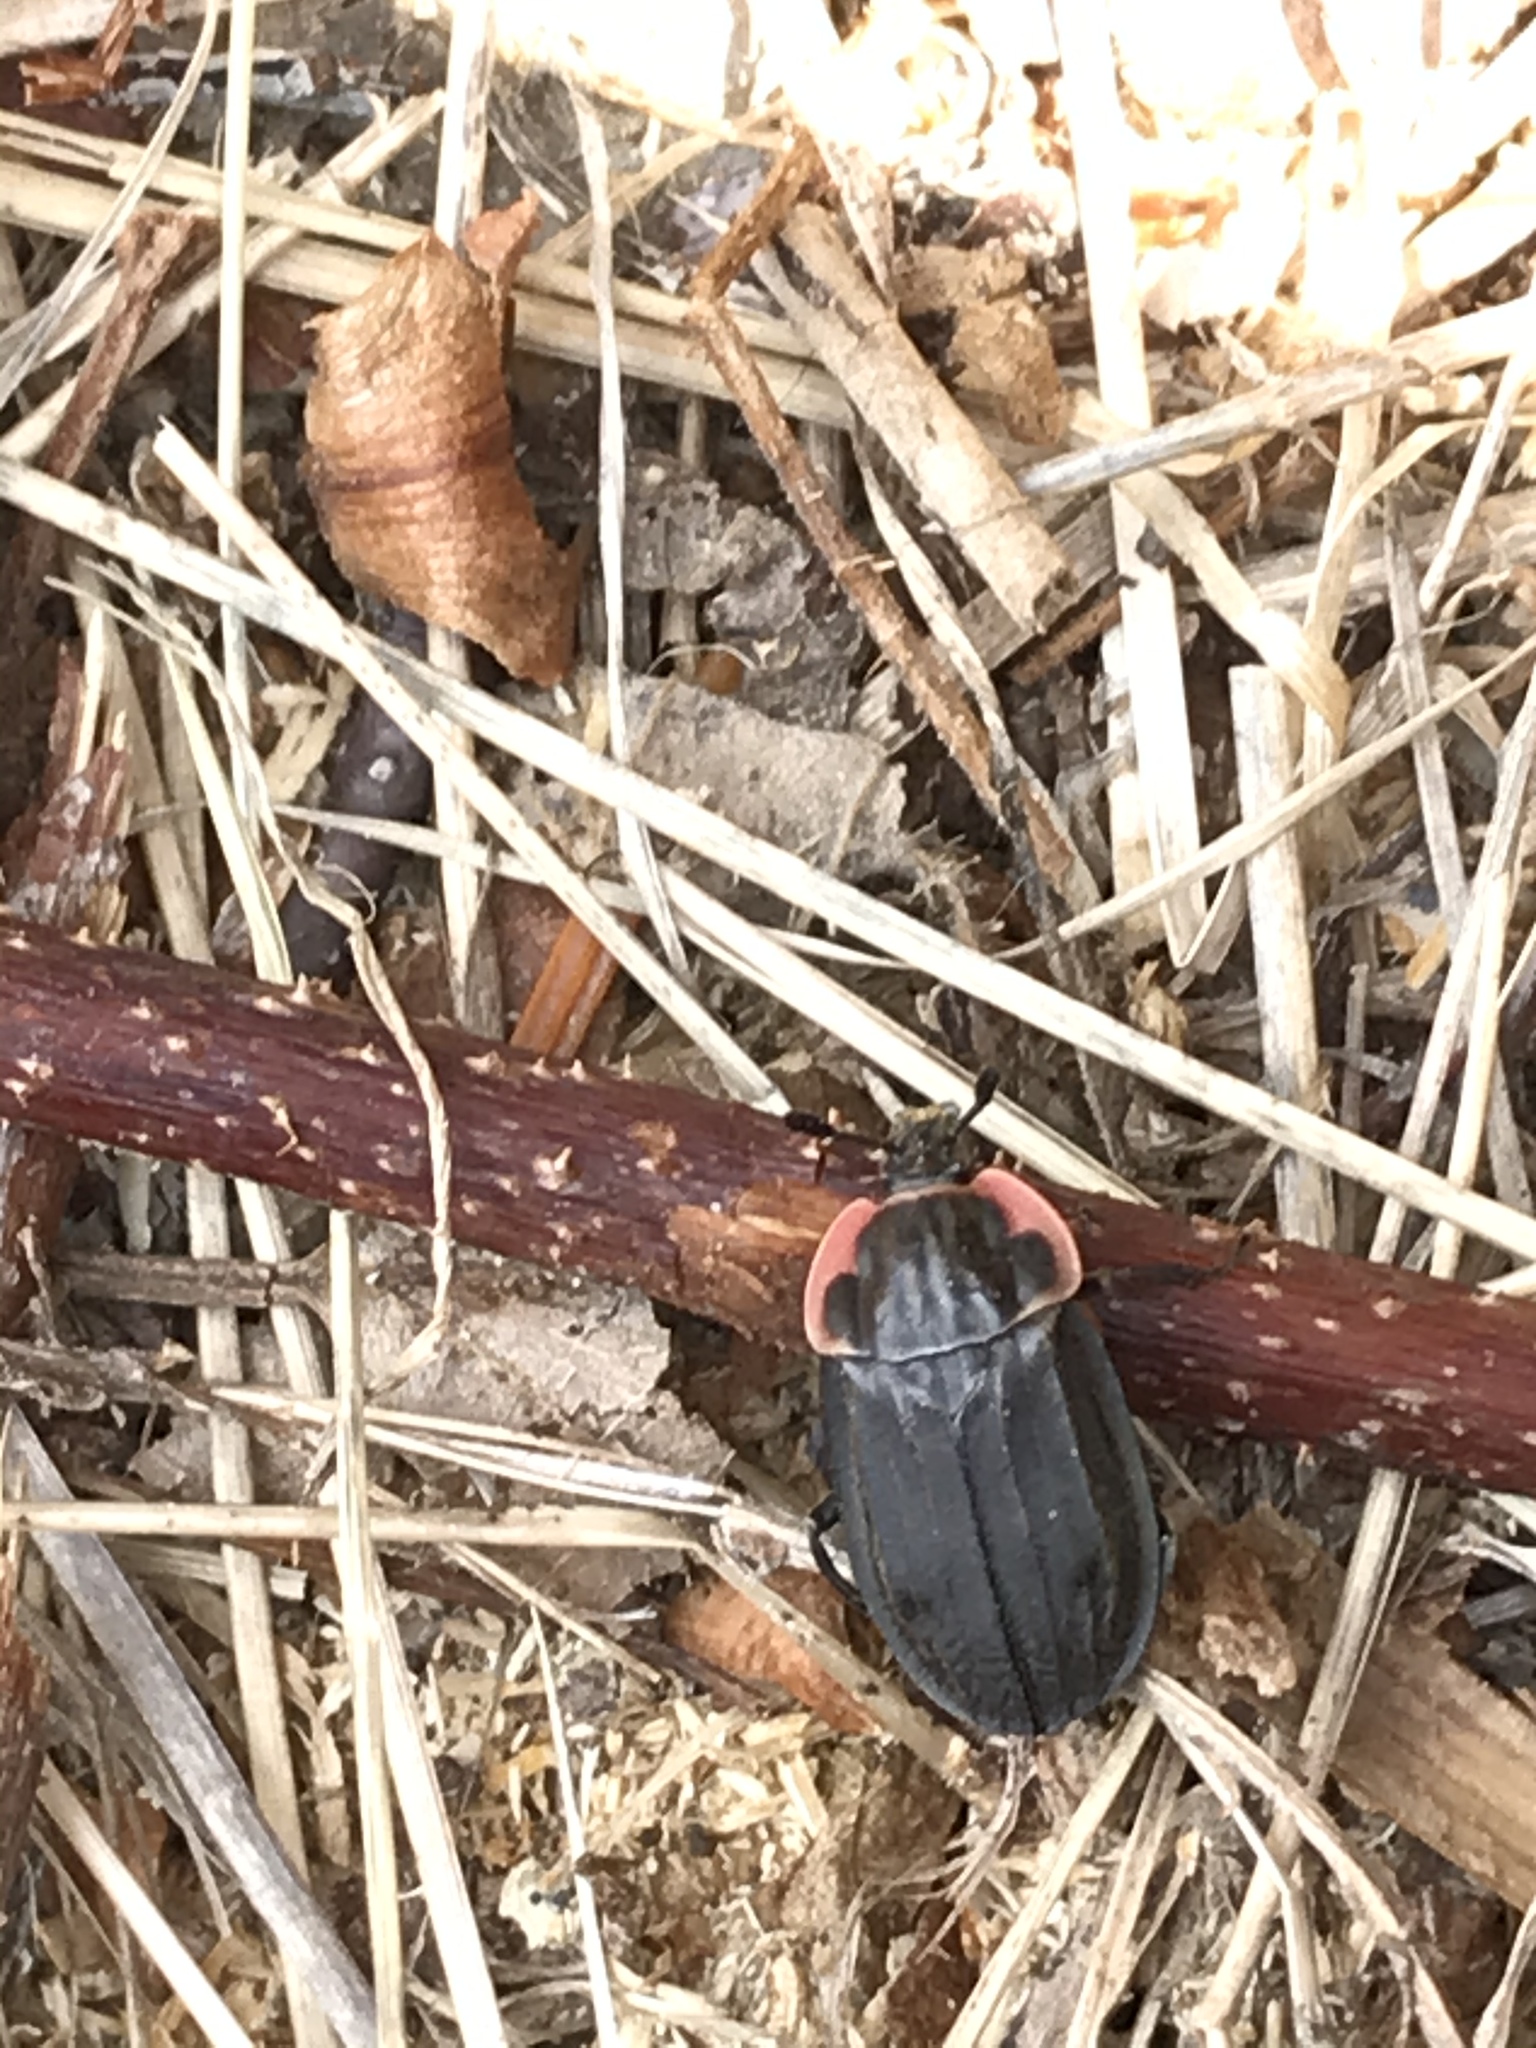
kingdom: Animalia
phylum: Arthropoda
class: Insecta
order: Coleoptera
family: Staphylinidae
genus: Oiceoptoma
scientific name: Oiceoptoma noveboracense
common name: Margined carrion beetle
